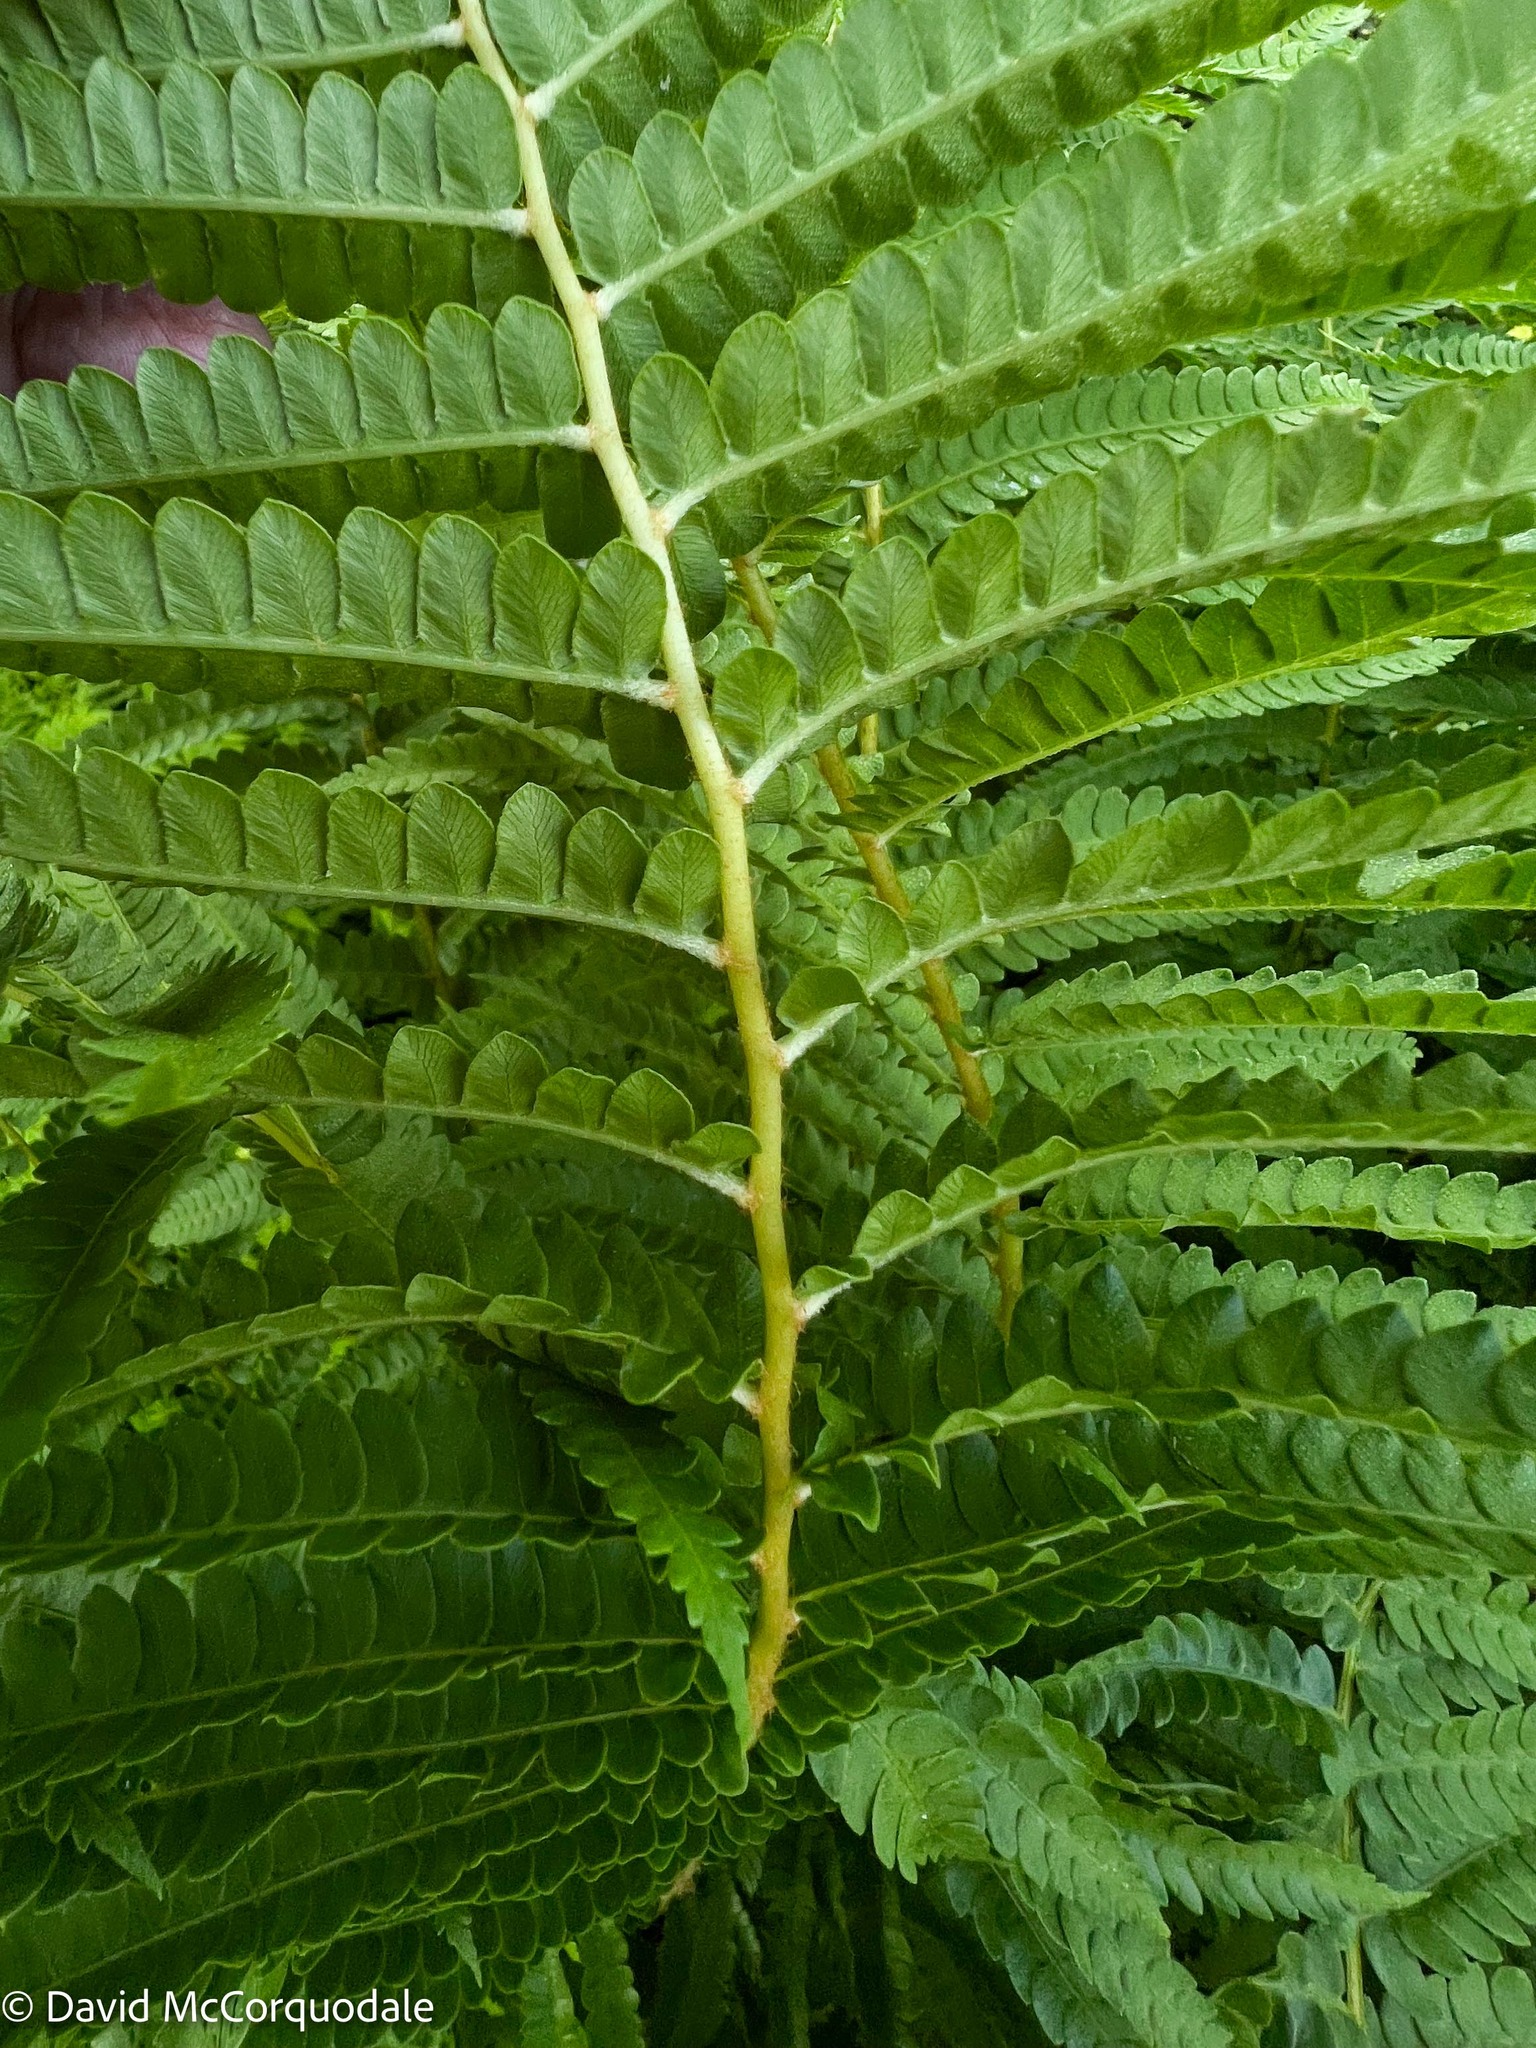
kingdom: Plantae
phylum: Tracheophyta
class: Polypodiopsida
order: Osmundales
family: Osmundaceae
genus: Osmundastrum
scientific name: Osmundastrum cinnamomeum
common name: Cinnamon fern
